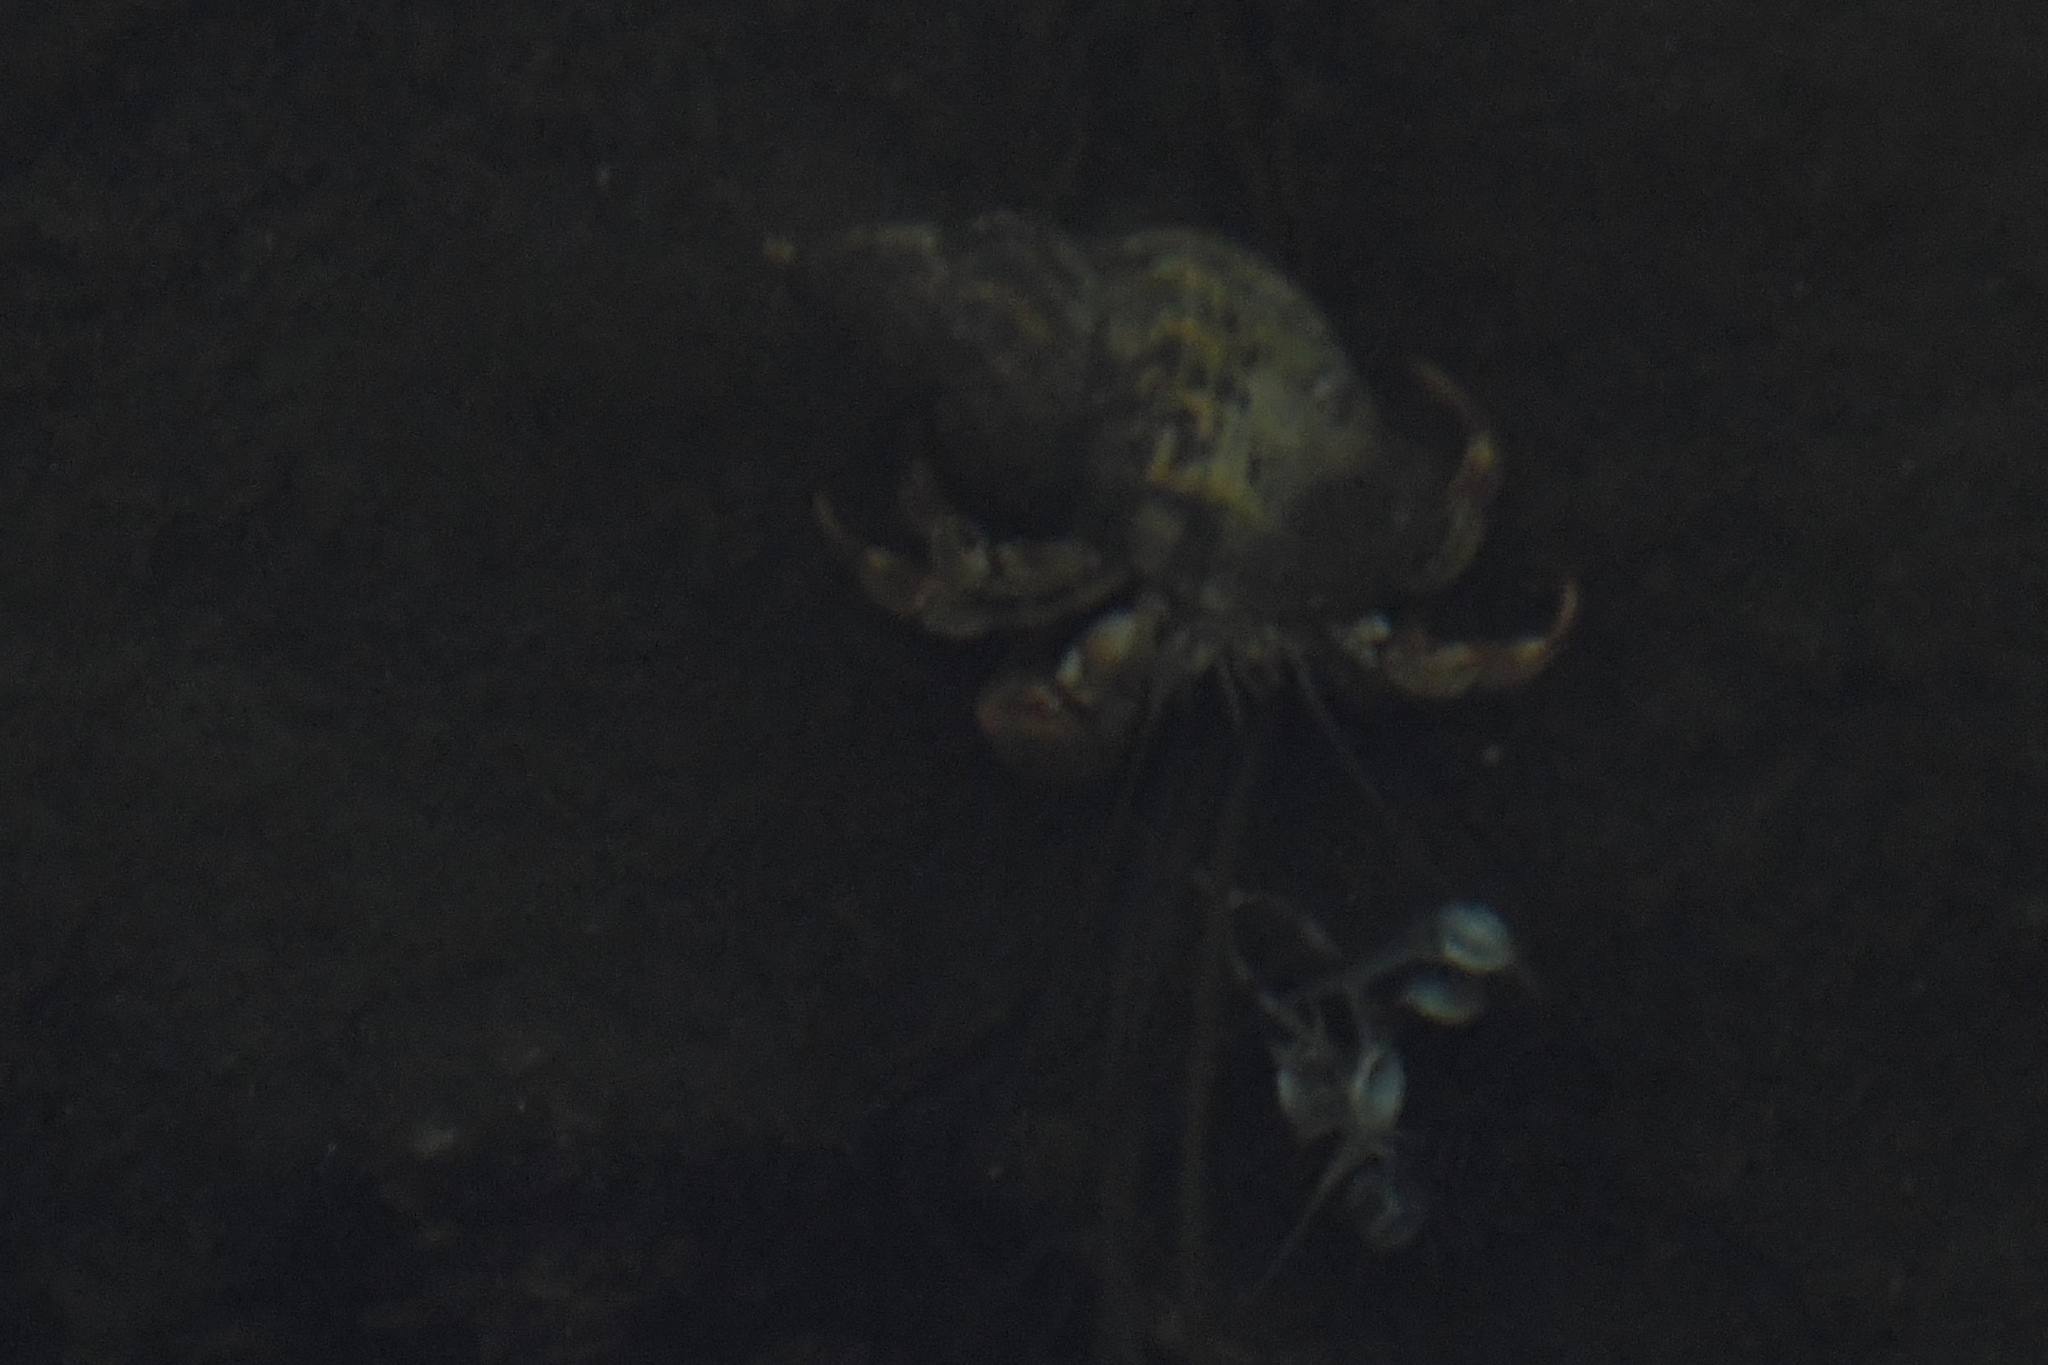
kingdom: Animalia
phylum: Arthropoda
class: Malacostraca
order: Decapoda
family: Paguridae
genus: Pagurus
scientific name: Pagurus bernhardus
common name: Hermit crab
